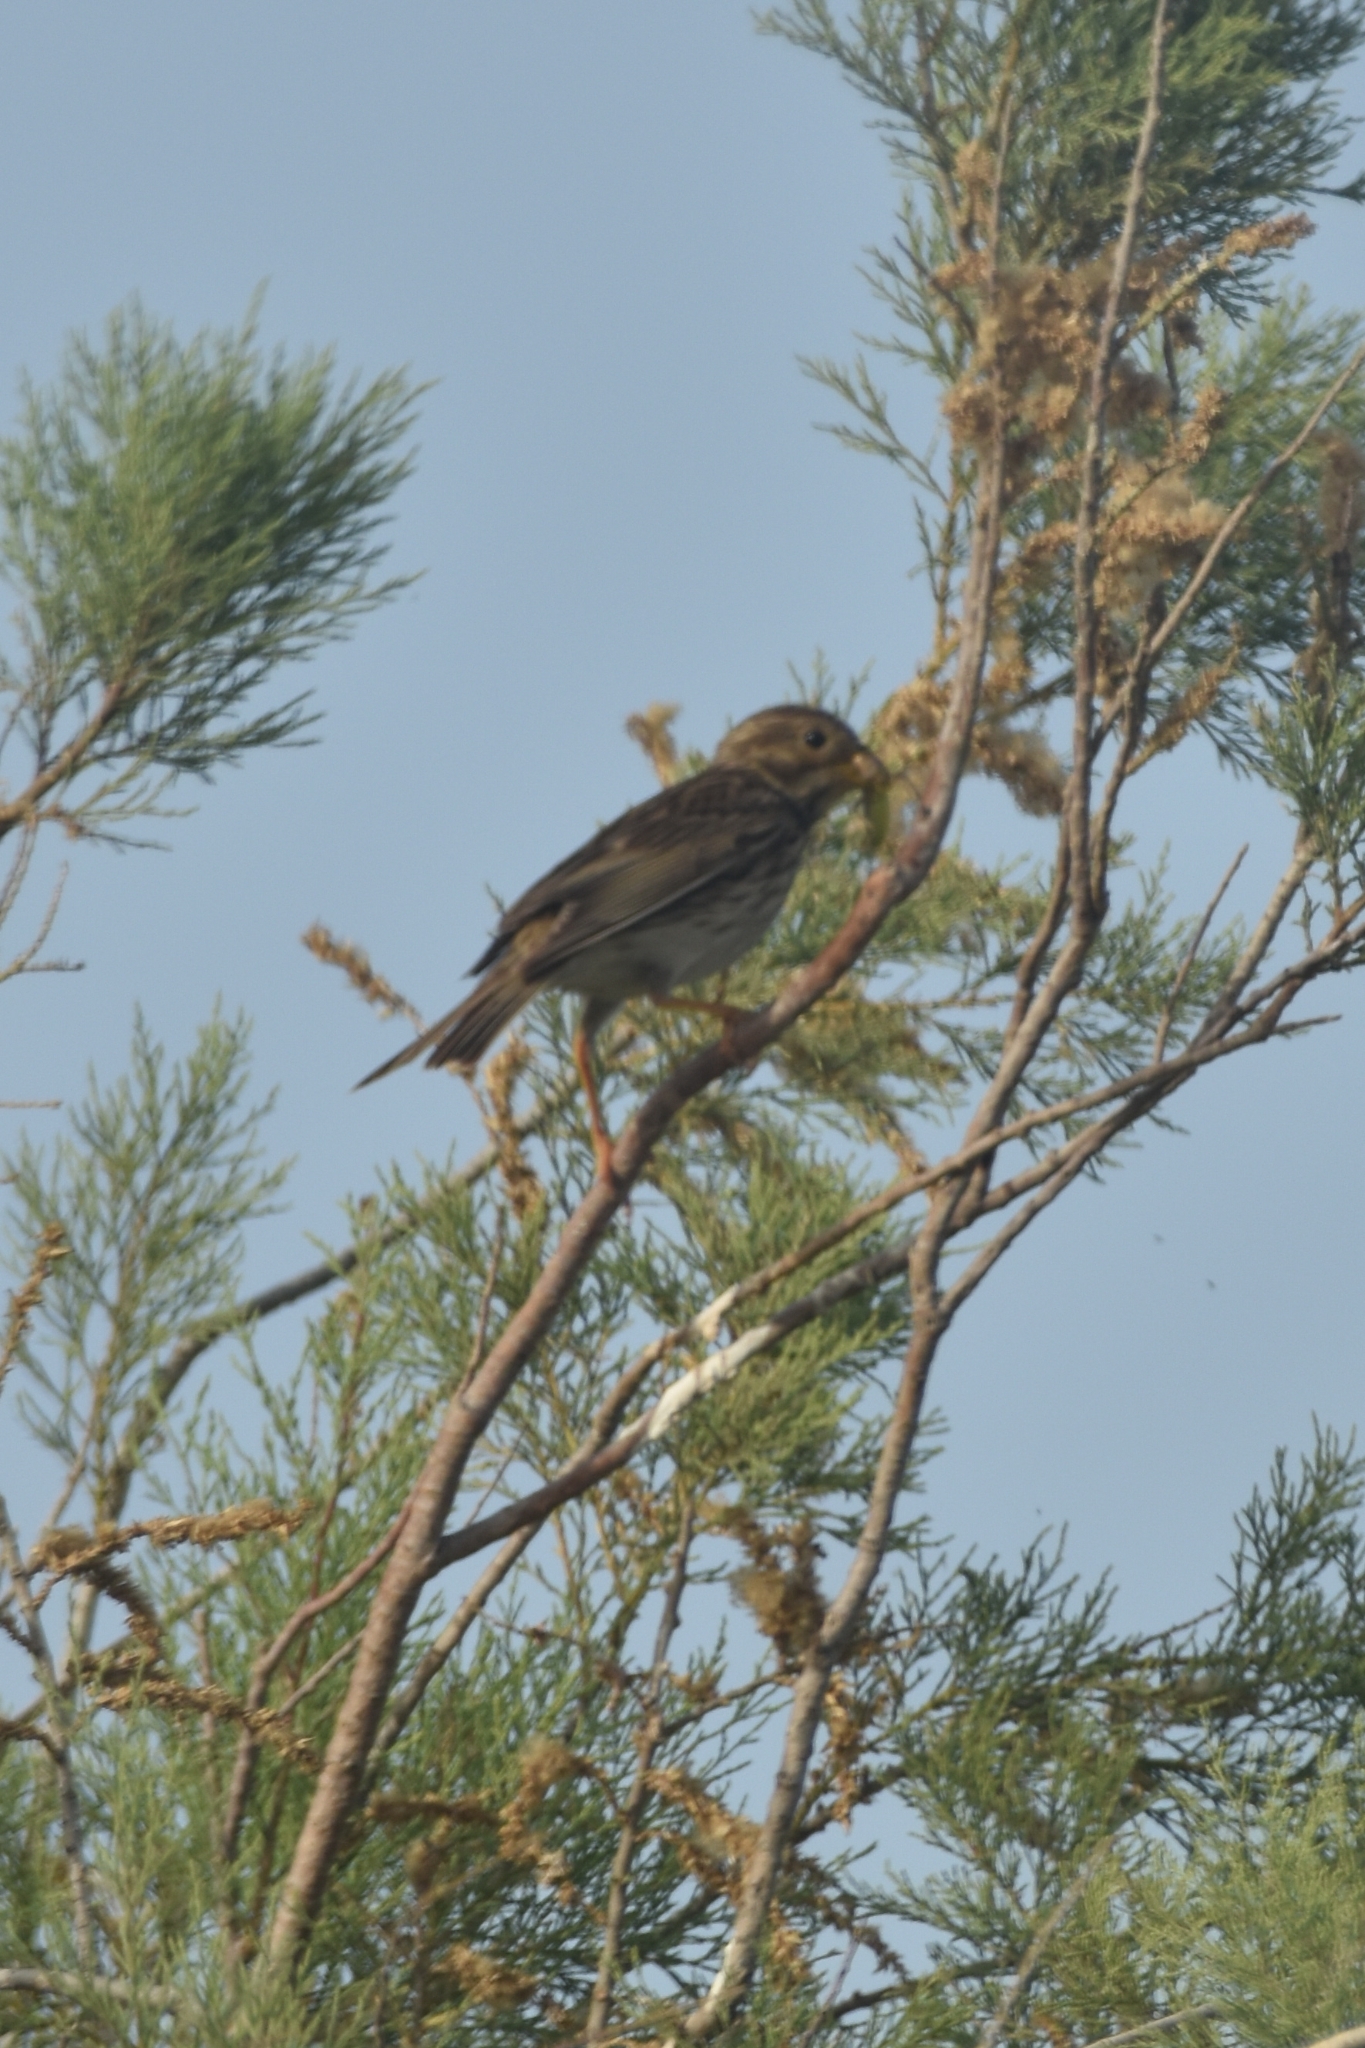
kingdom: Animalia
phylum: Chordata
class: Aves
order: Passeriformes
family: Emberizidae
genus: Emberiza
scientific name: Emberiza calandra
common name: Corn bunting
